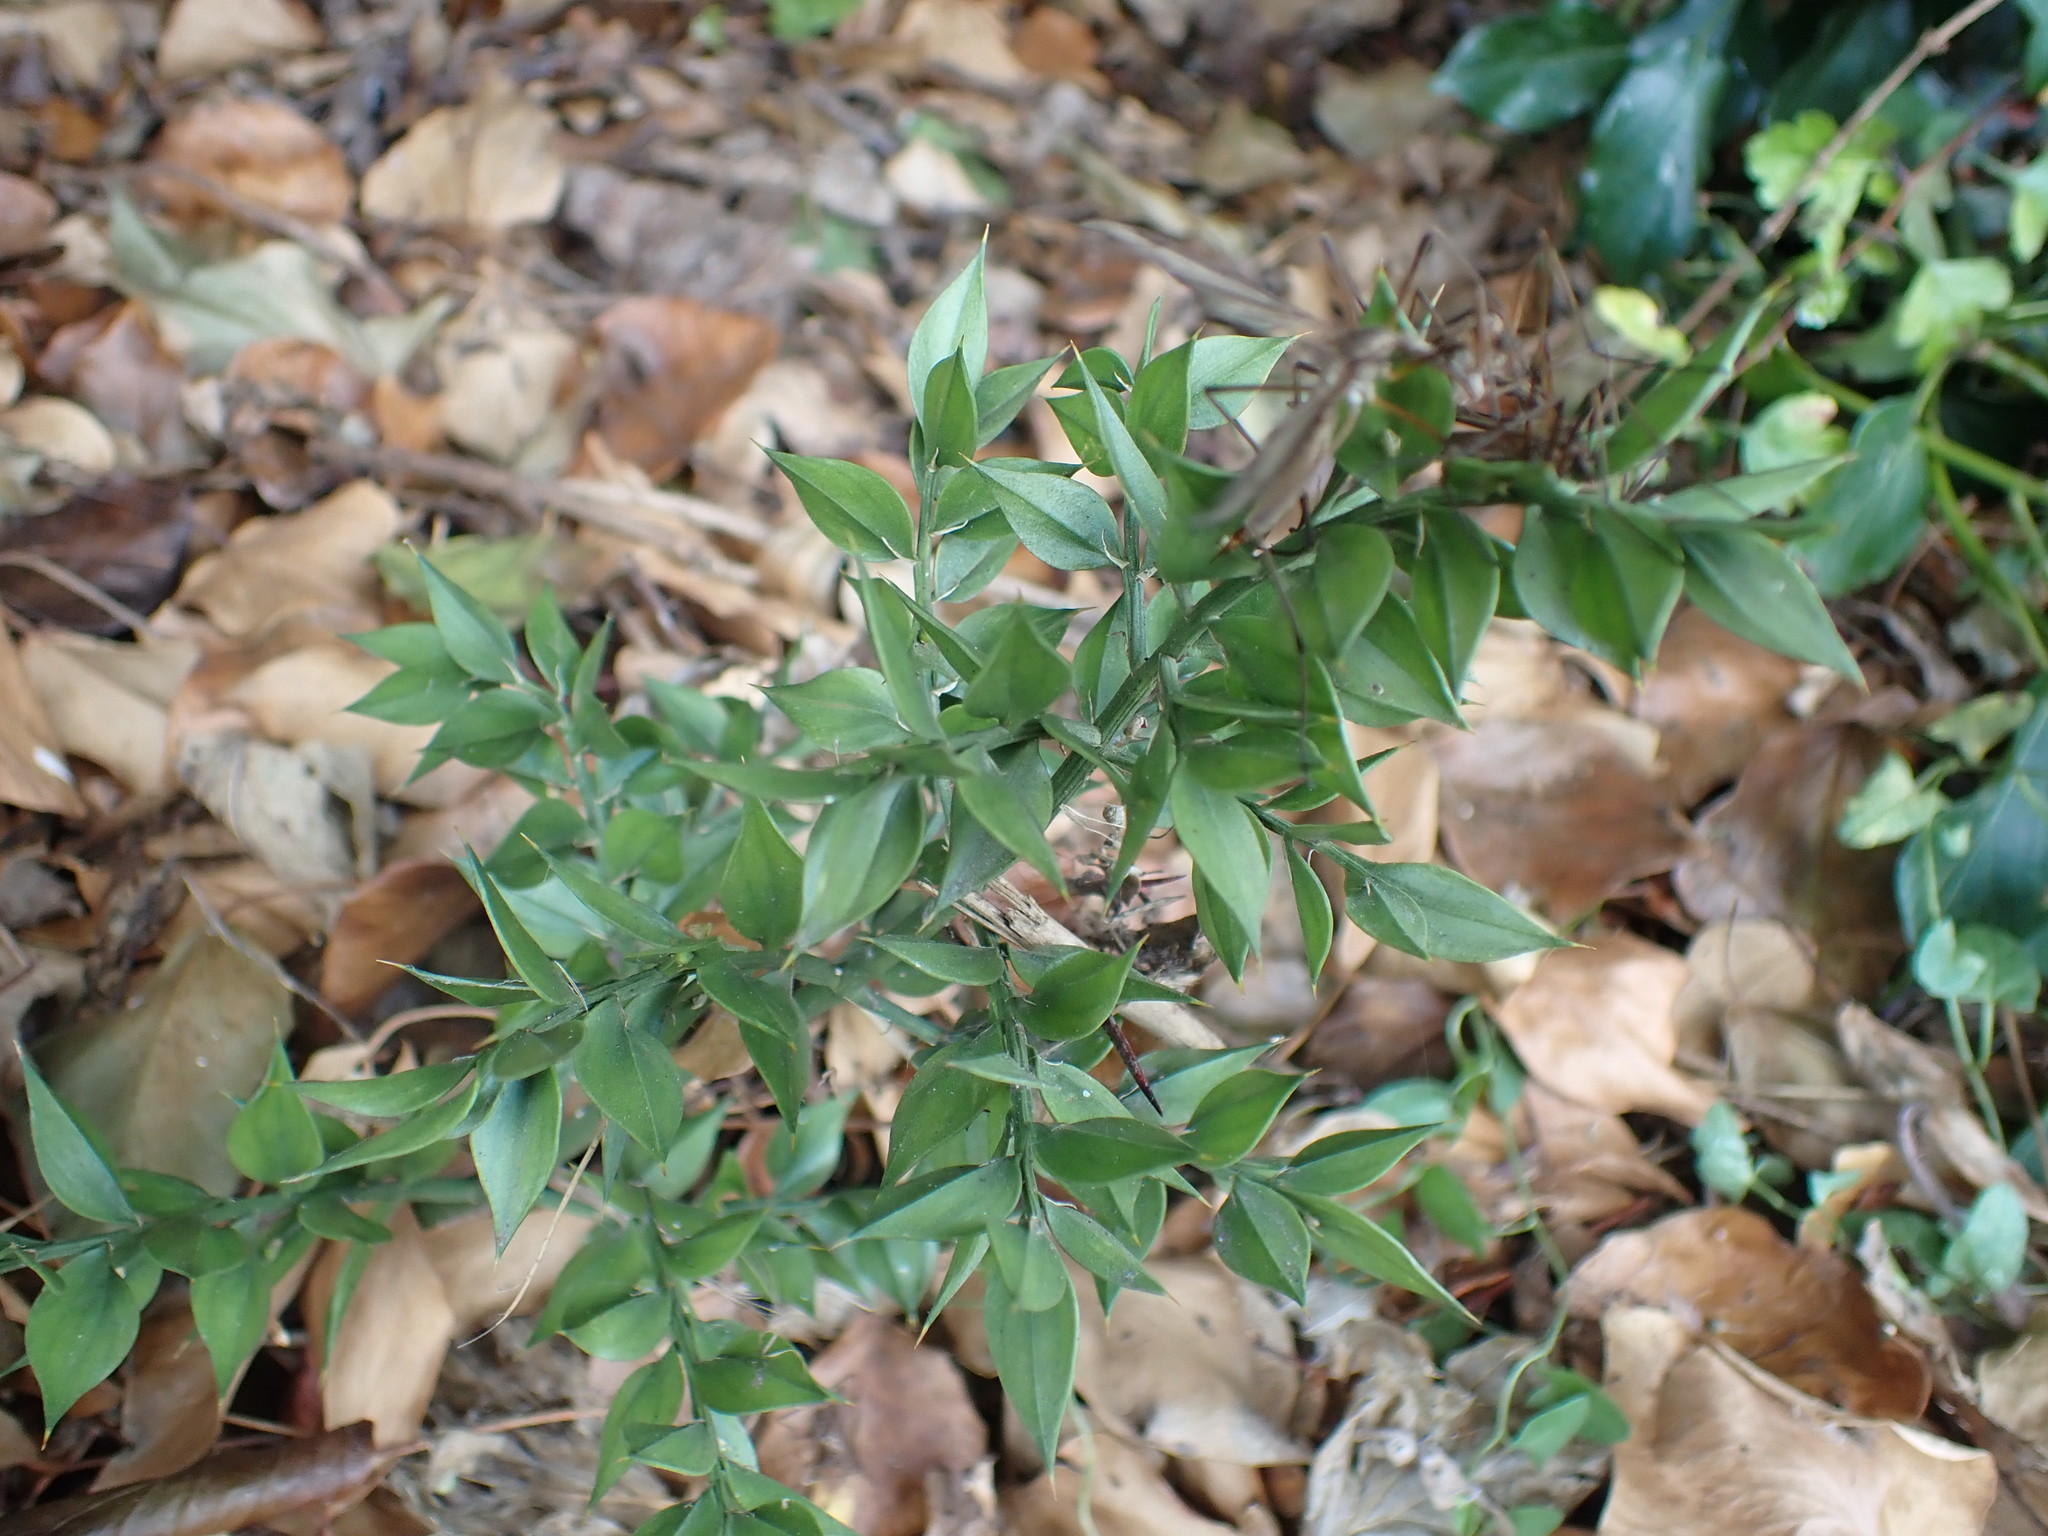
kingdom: Plantae
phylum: Tracheophyta
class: Liliopsida
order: Asparagales
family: Asparagaceae
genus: Ruscus
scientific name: Ruscus aculeatus
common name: Butcher's-broom
